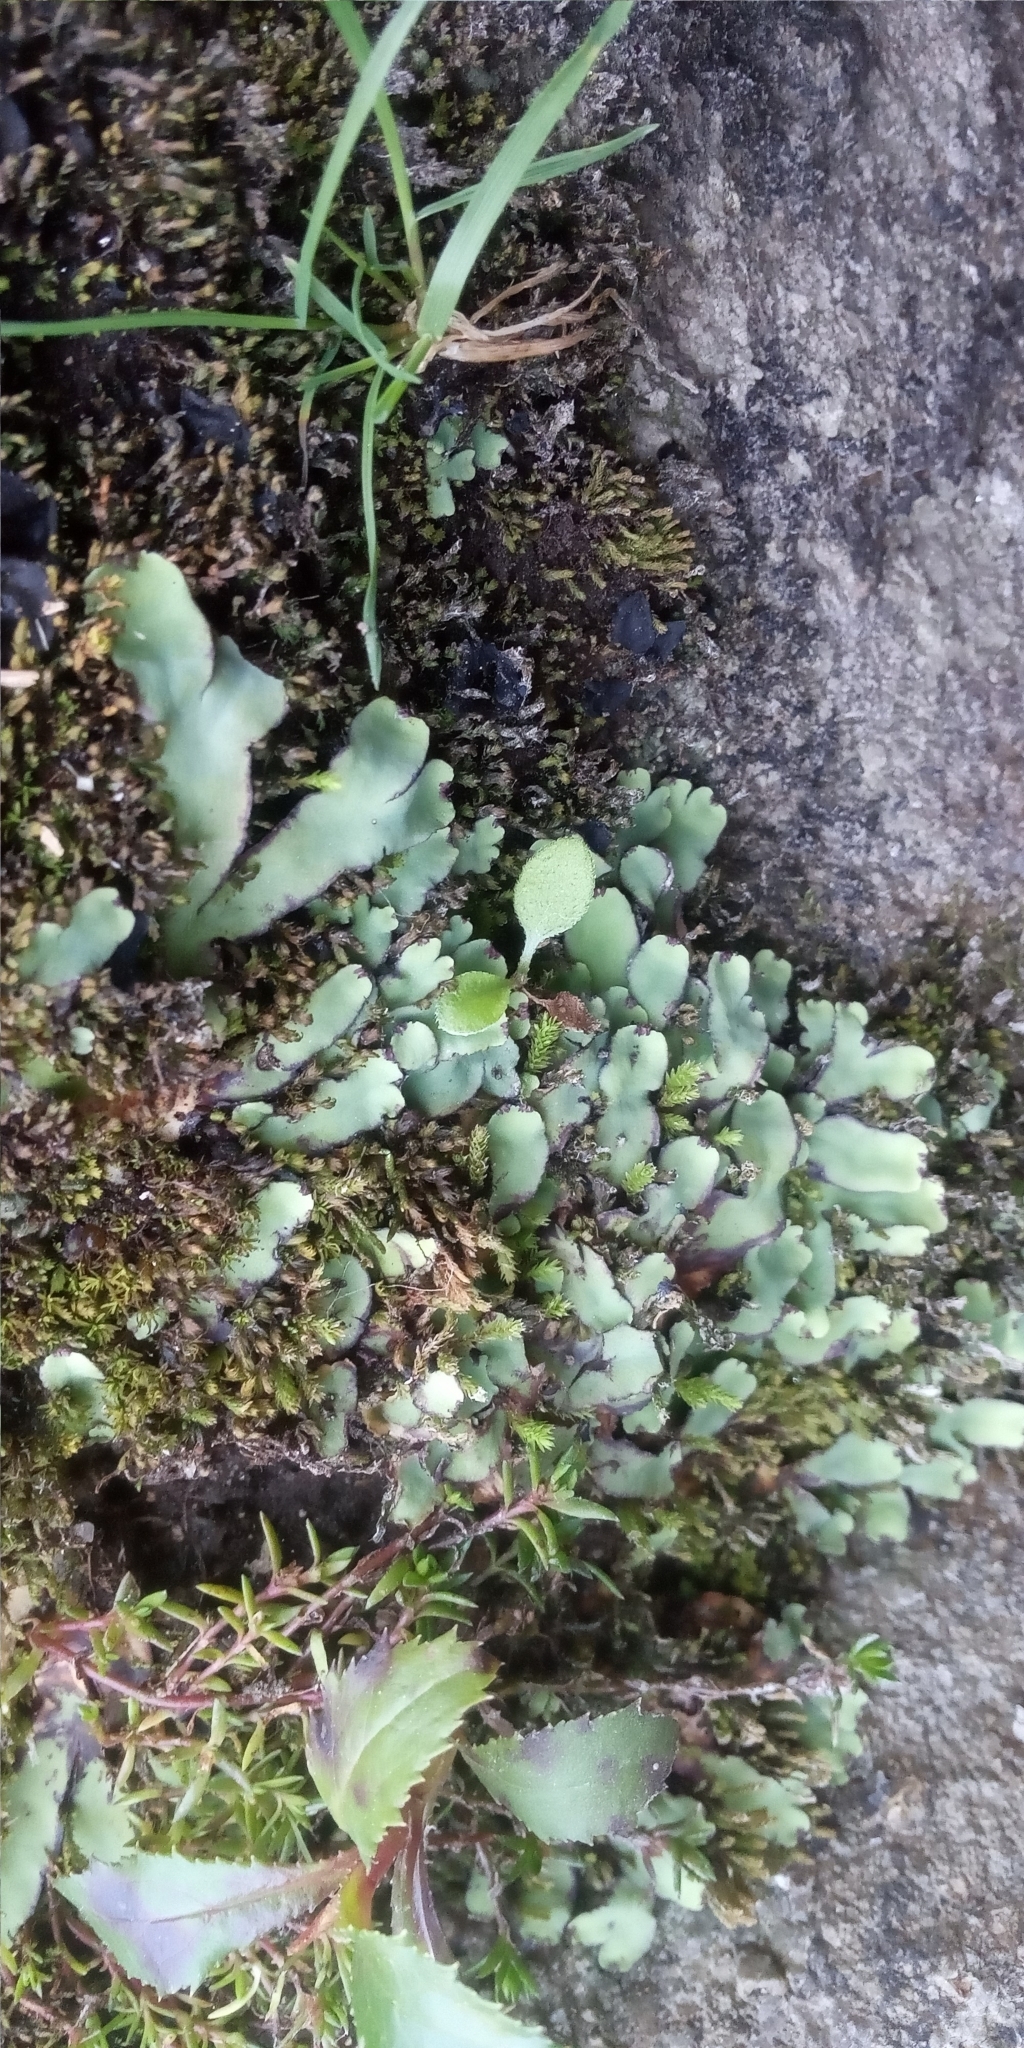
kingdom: Plantae
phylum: Marchantiophyta
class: Marchantiopsida
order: Marchantiales
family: Aytoniaceae
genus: Plagiochasma
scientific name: Plagiochasma rupestre
